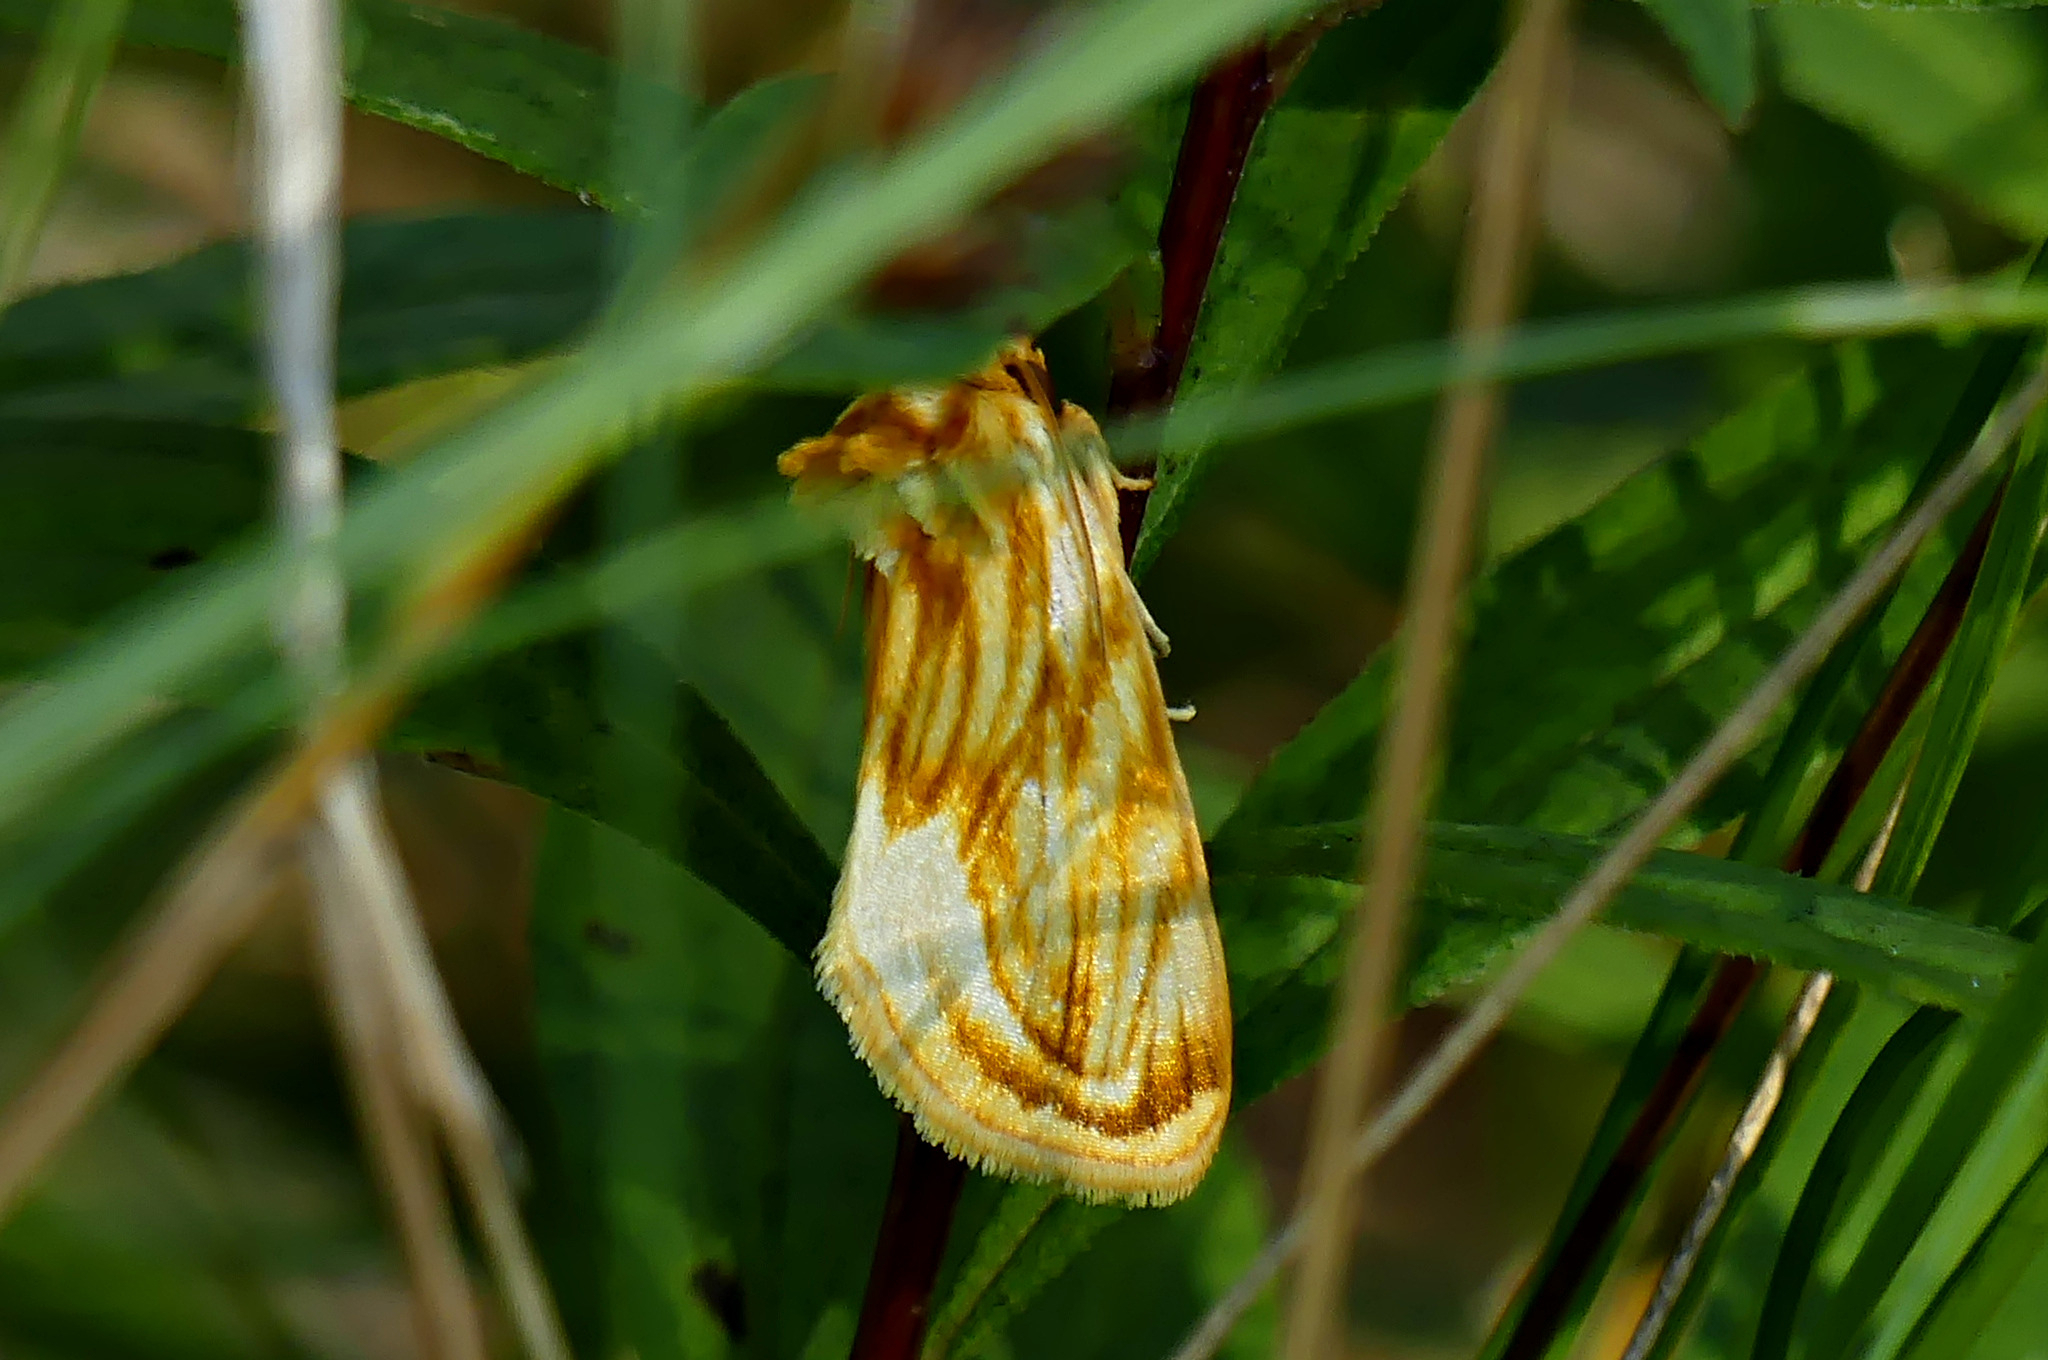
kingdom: Animalia
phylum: Arthropoda
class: Insecta
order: Lepidoptera
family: Noctuidae
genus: Cirrhophanus
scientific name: Cirrhophanus triangulifer
